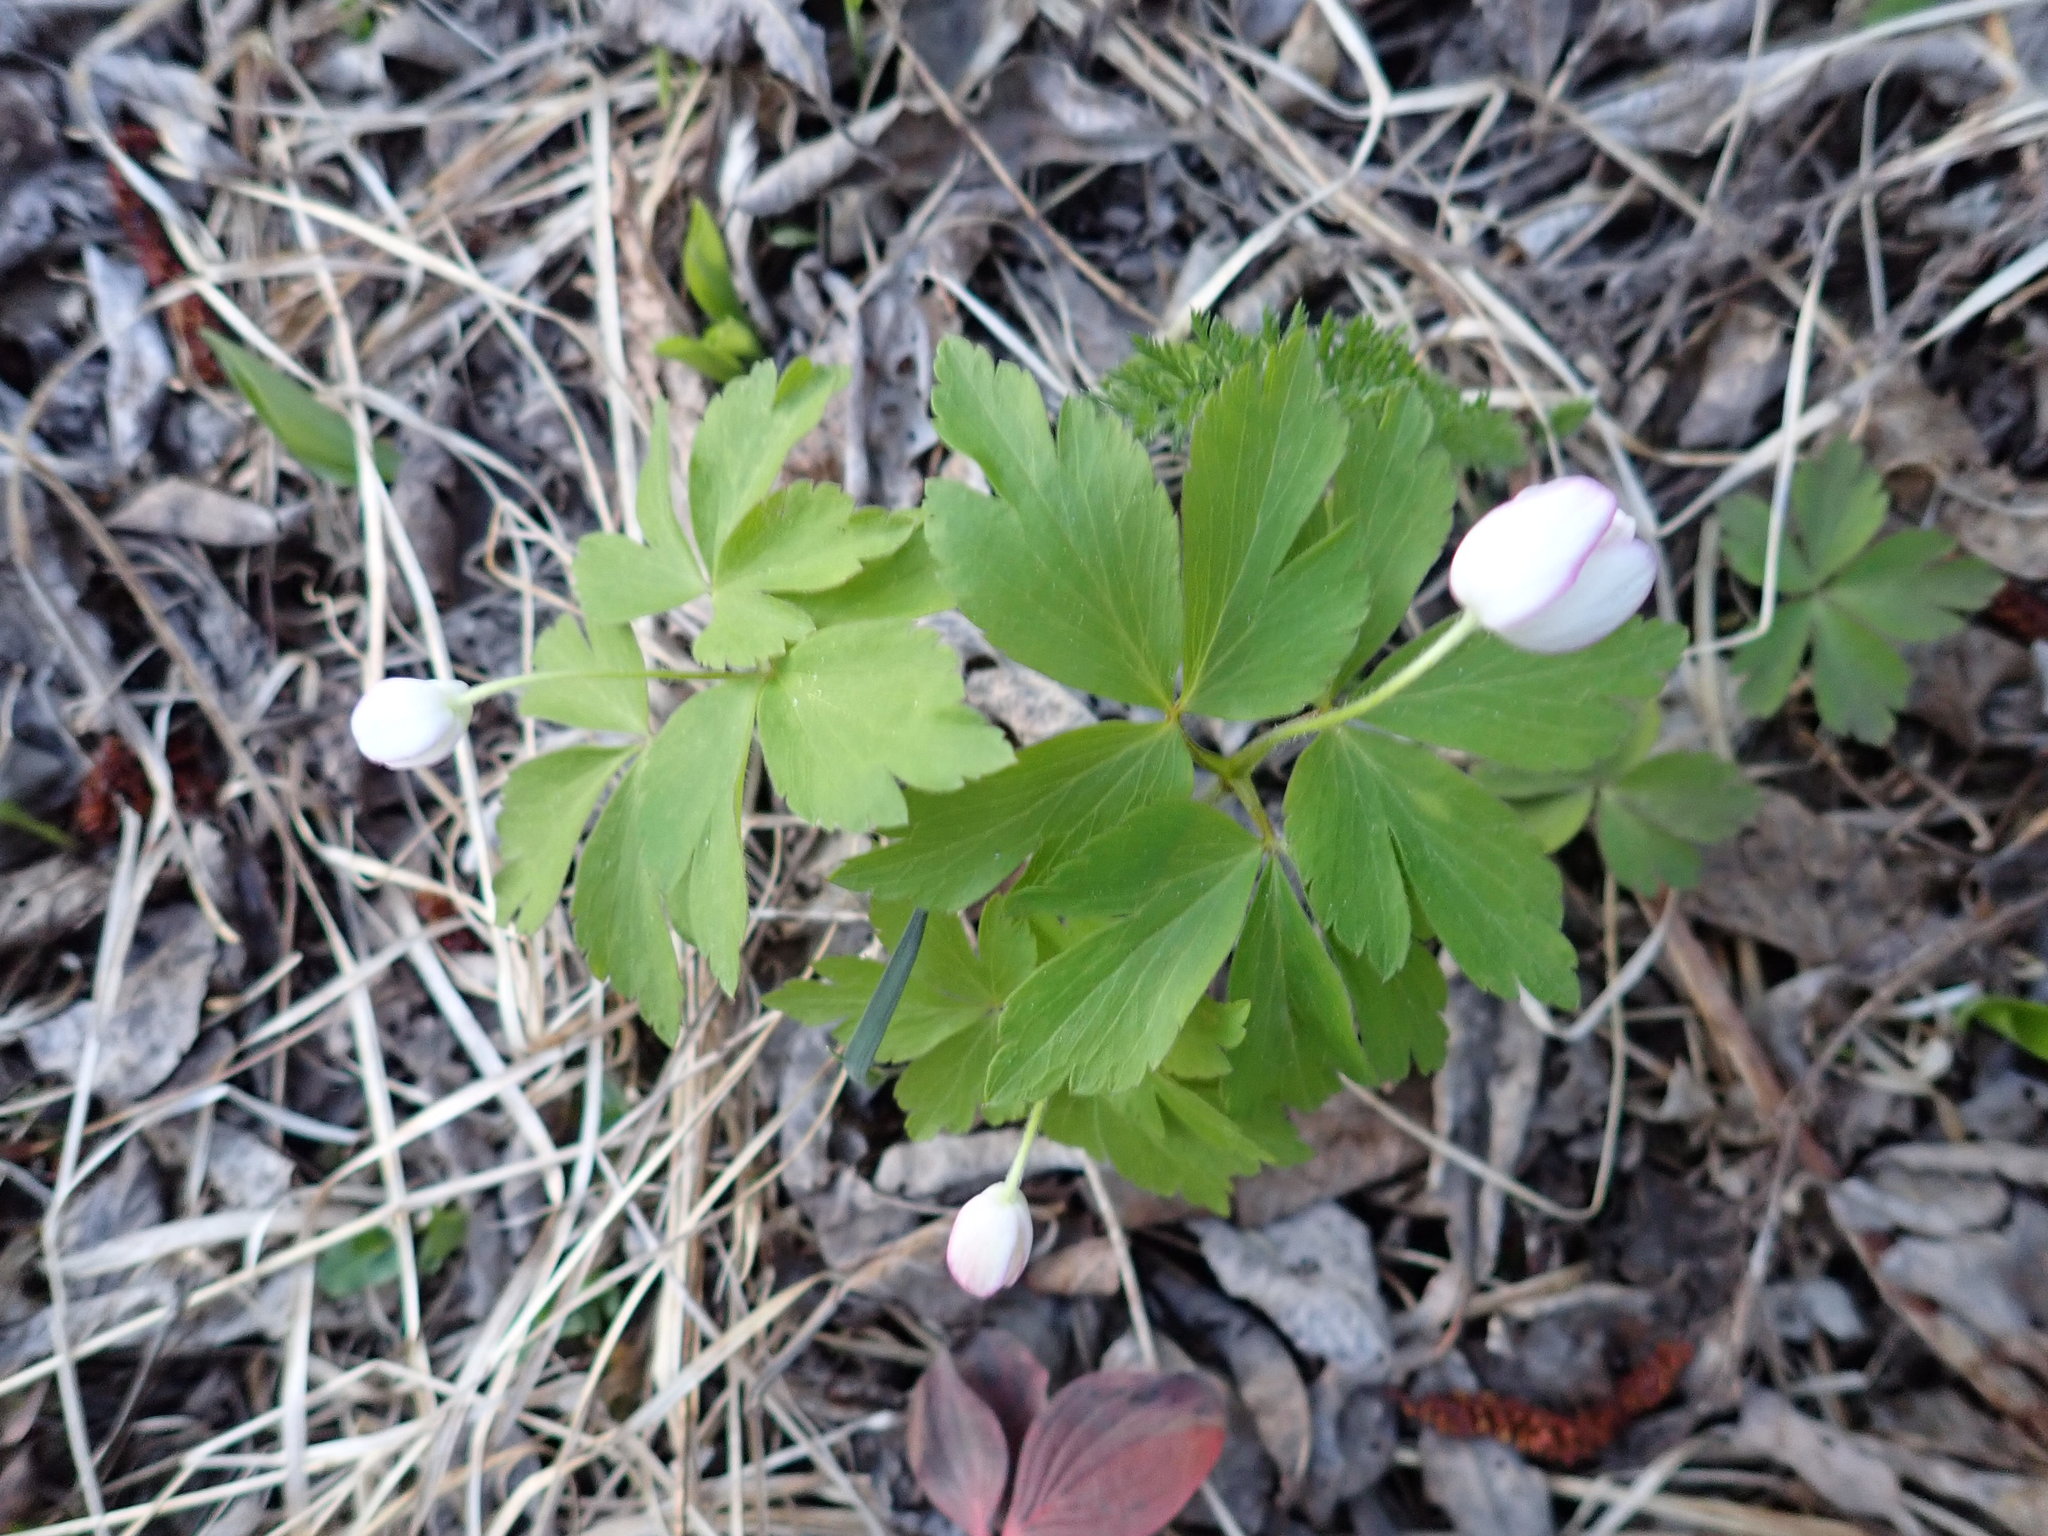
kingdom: Plantae
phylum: Tracheophyta
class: Magnoliopsida
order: Ranunculales
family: Ranunculaceae
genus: Anemone
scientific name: Anemone quinquefolia
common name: Wood anemone
